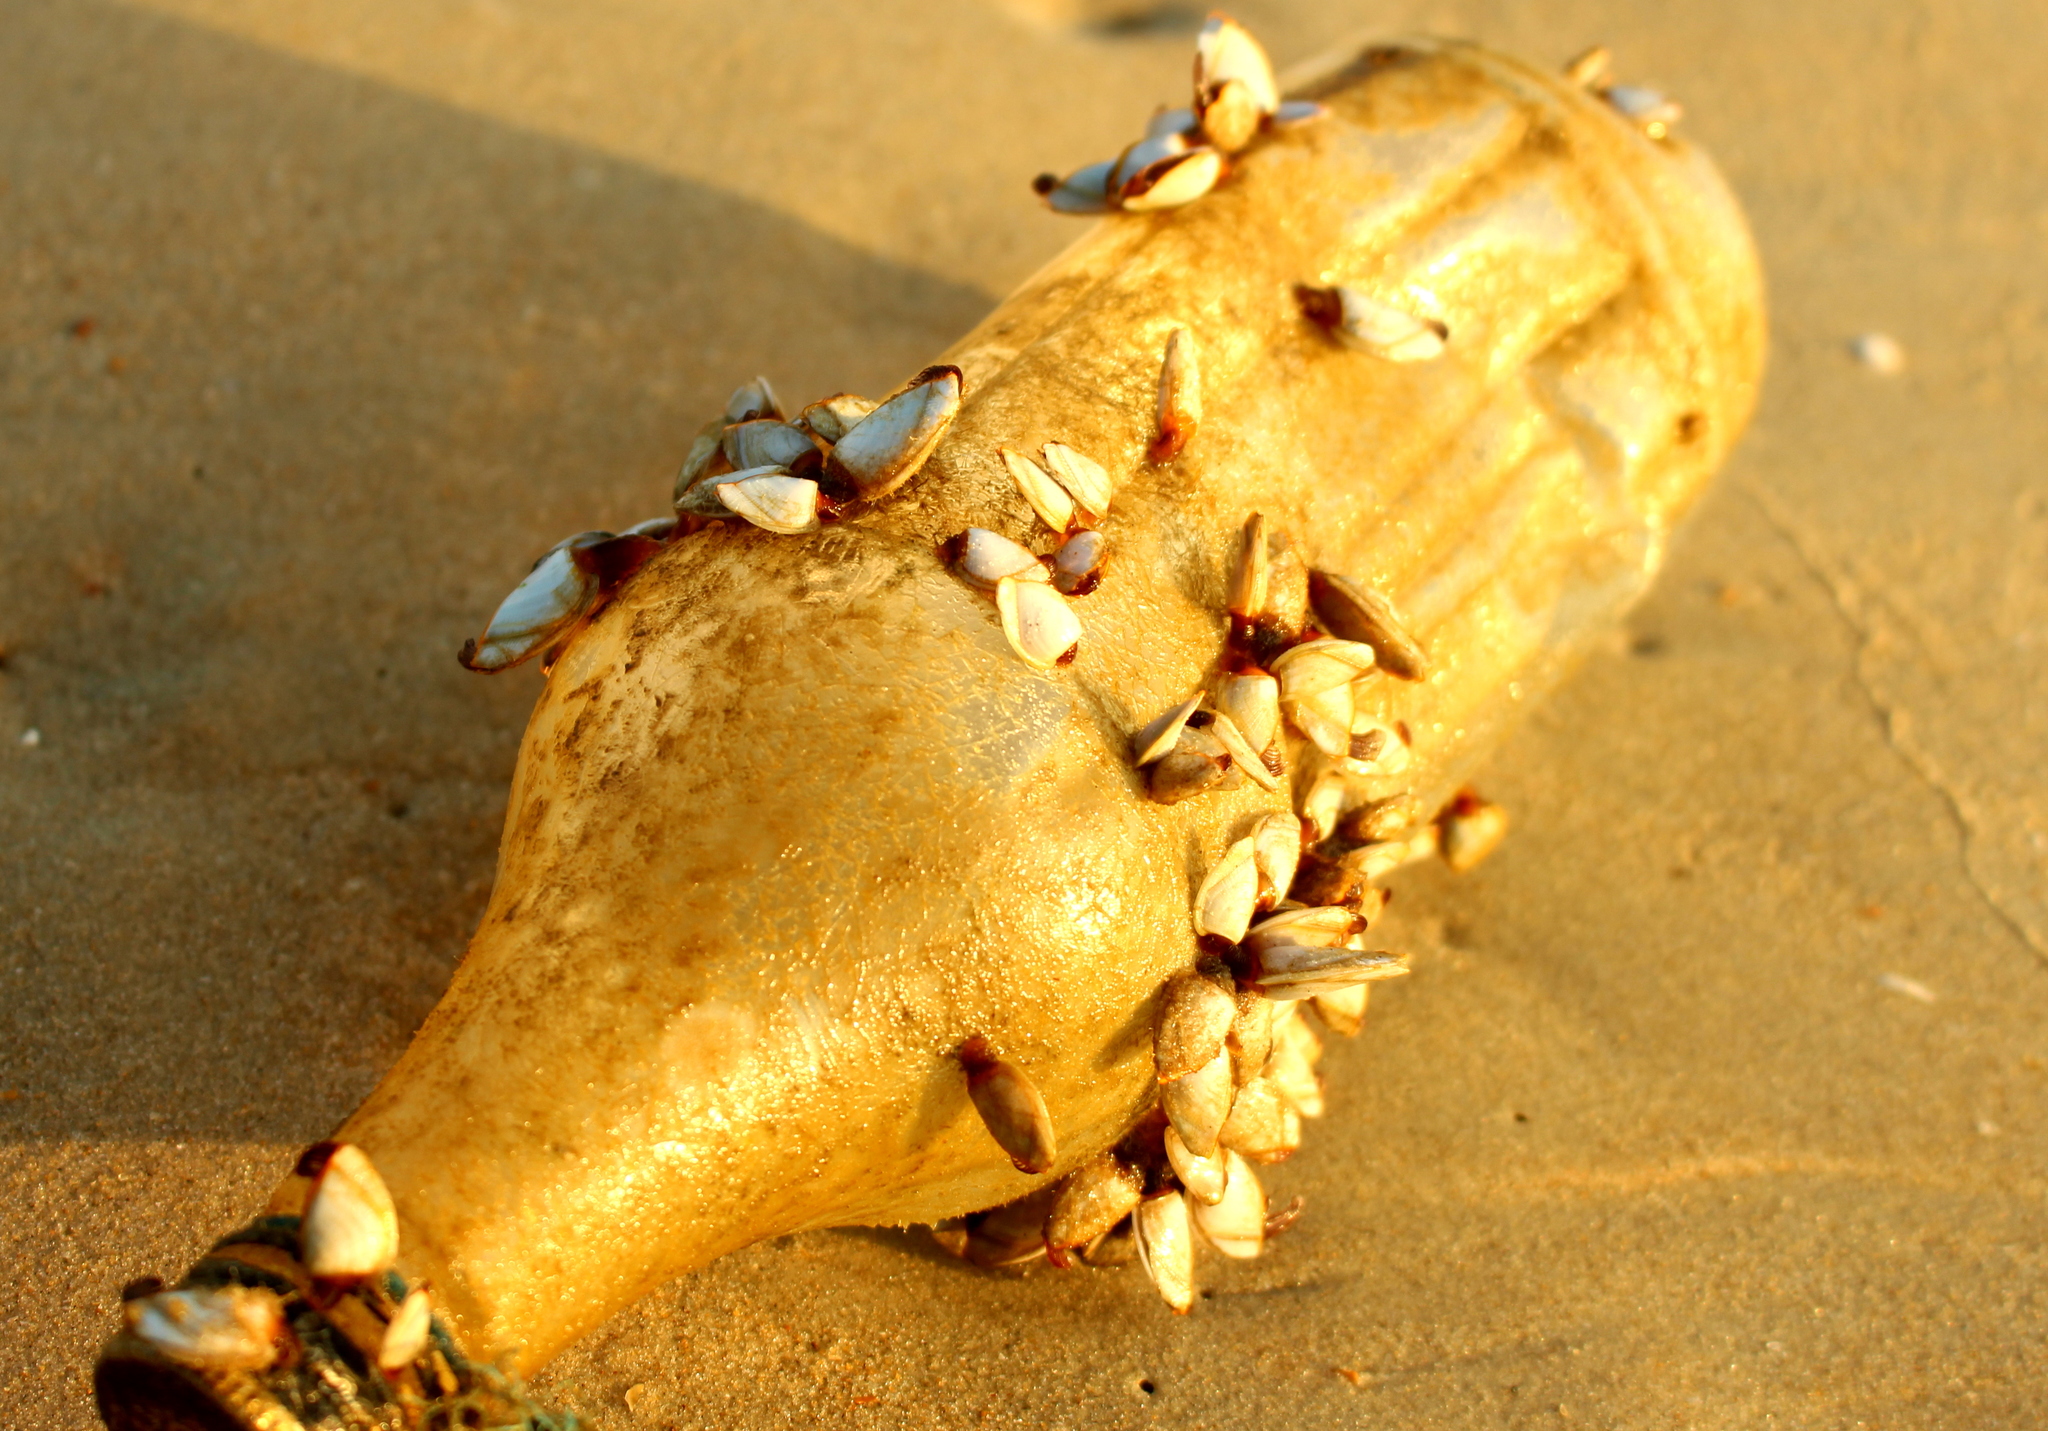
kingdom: Animalia
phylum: Arthropoda
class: Maxillopoda
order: Pedunculata
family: Lepadidae
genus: Lepas
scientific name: Lepas anserifera
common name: Goose barnacle
